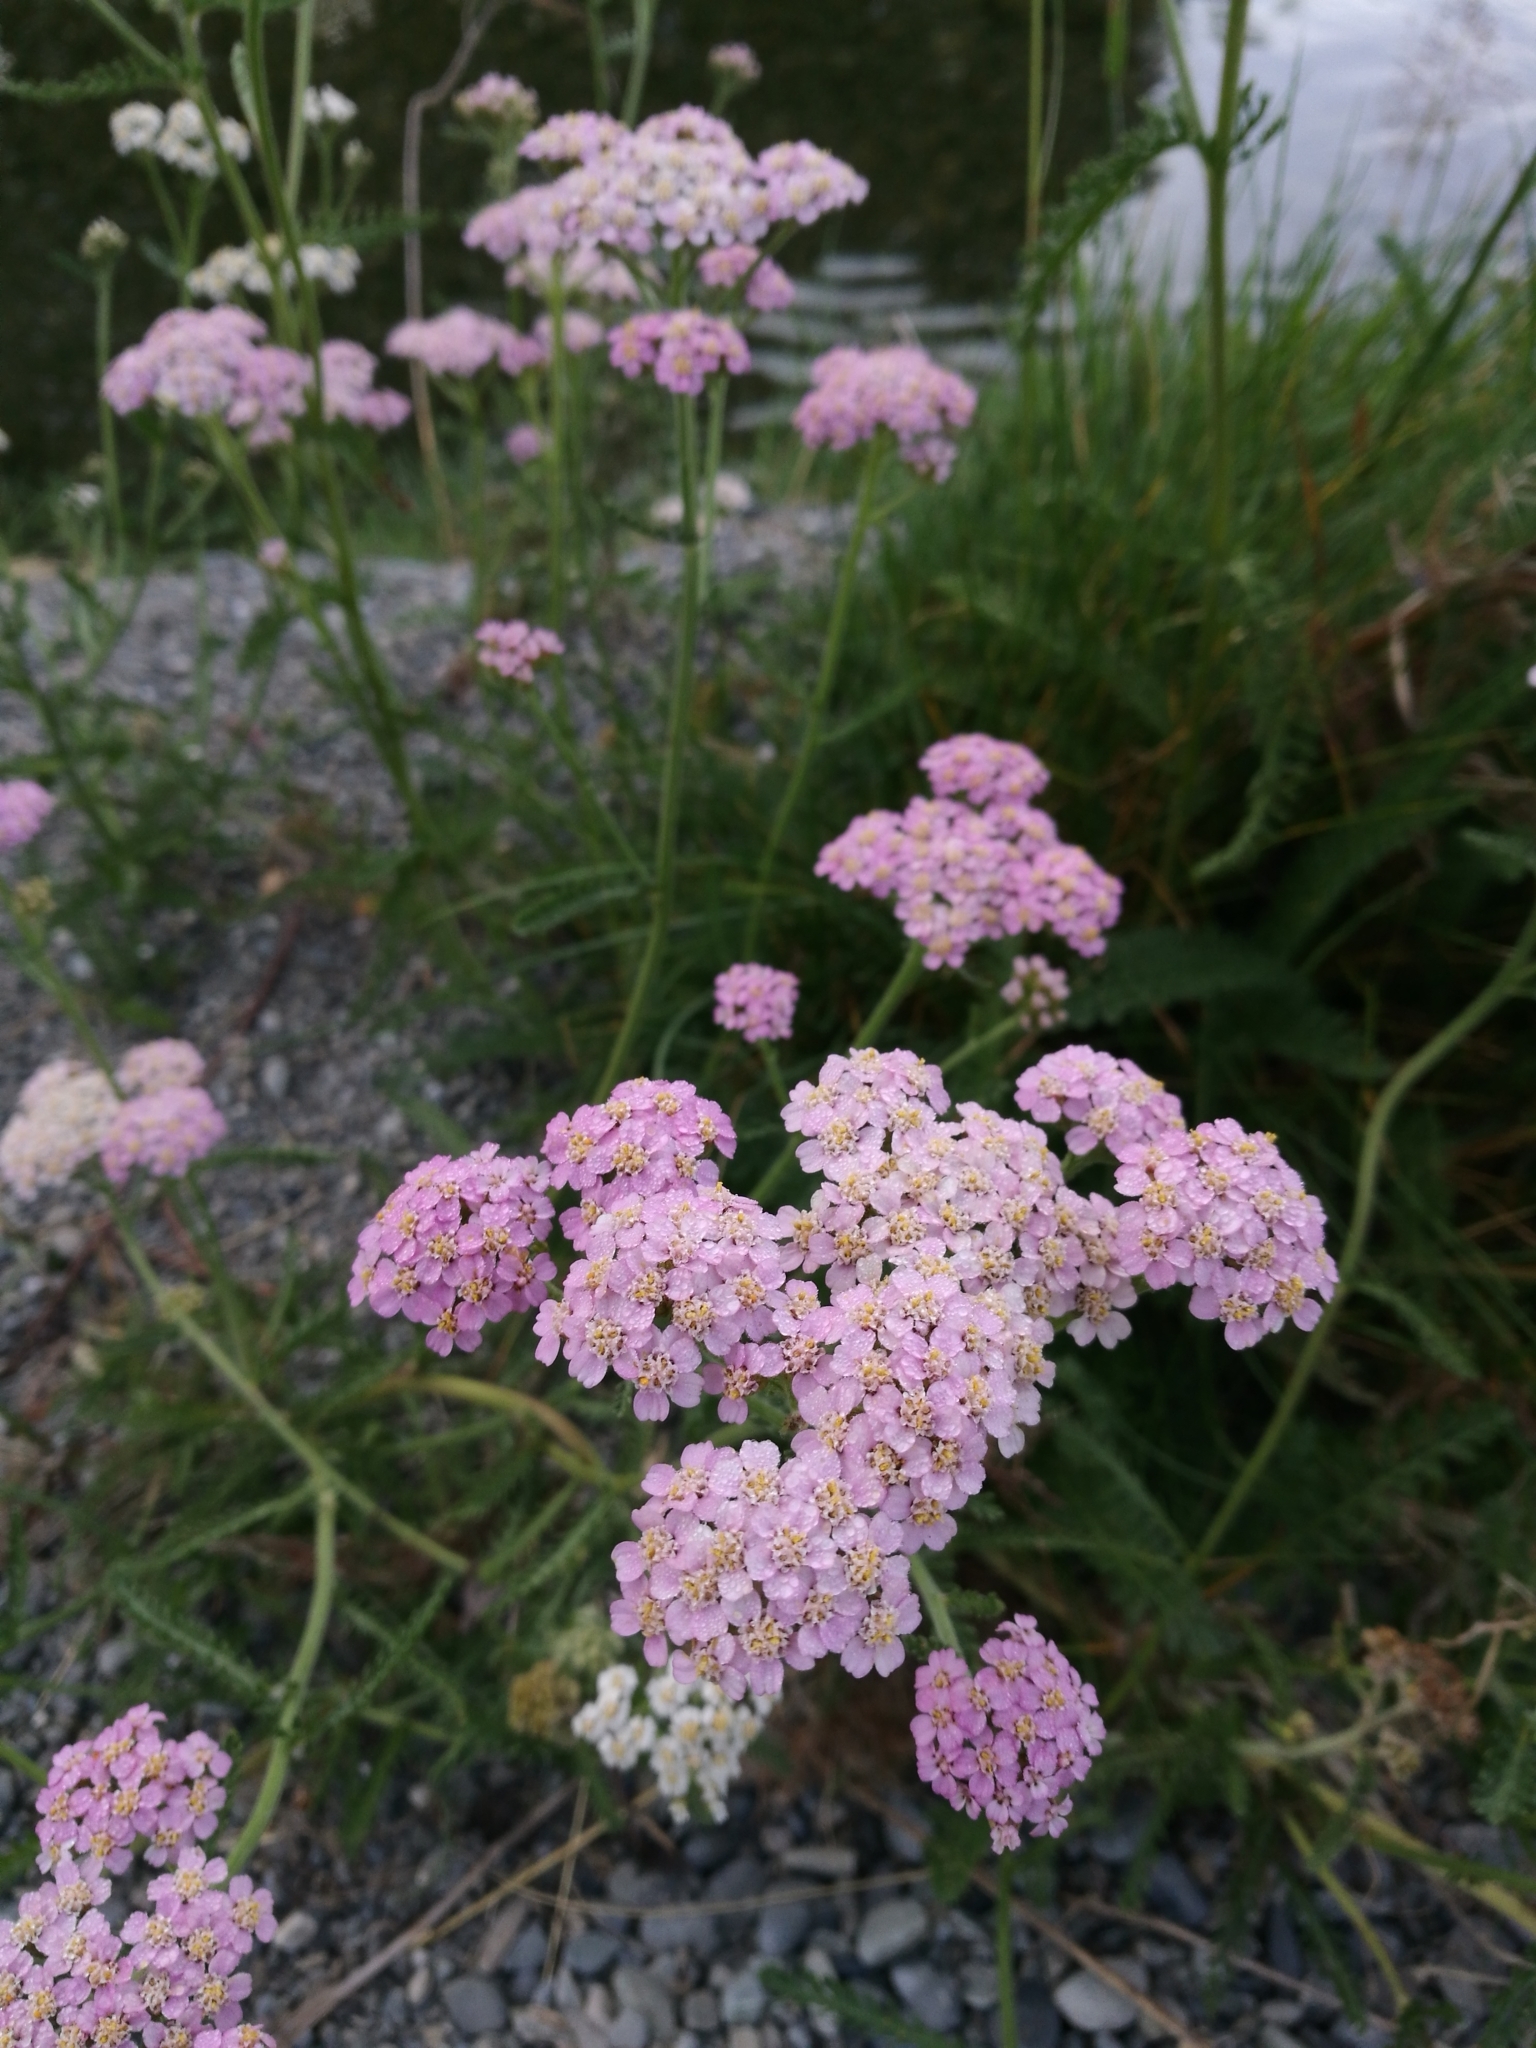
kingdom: Plantae
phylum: Tracheophyta
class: Magnoliopsida
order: Asterales
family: Asteraceae
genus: Achillea
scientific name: Achillea millefolium
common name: Yarrow
